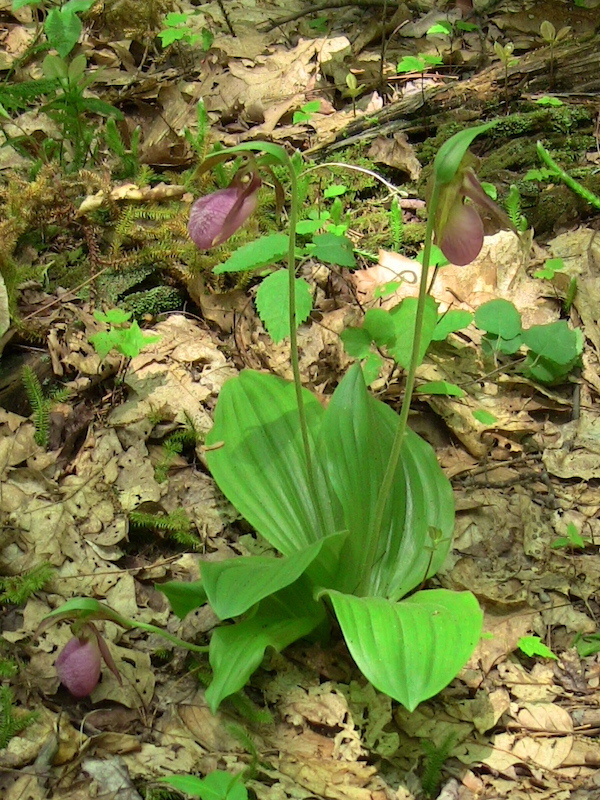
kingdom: Plantae
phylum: Tracheophyta
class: Liliopsida
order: Asparagales
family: Orchidaceae
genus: Cypripedium
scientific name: Cypripedium acaule
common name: Pink lady's-slipper
